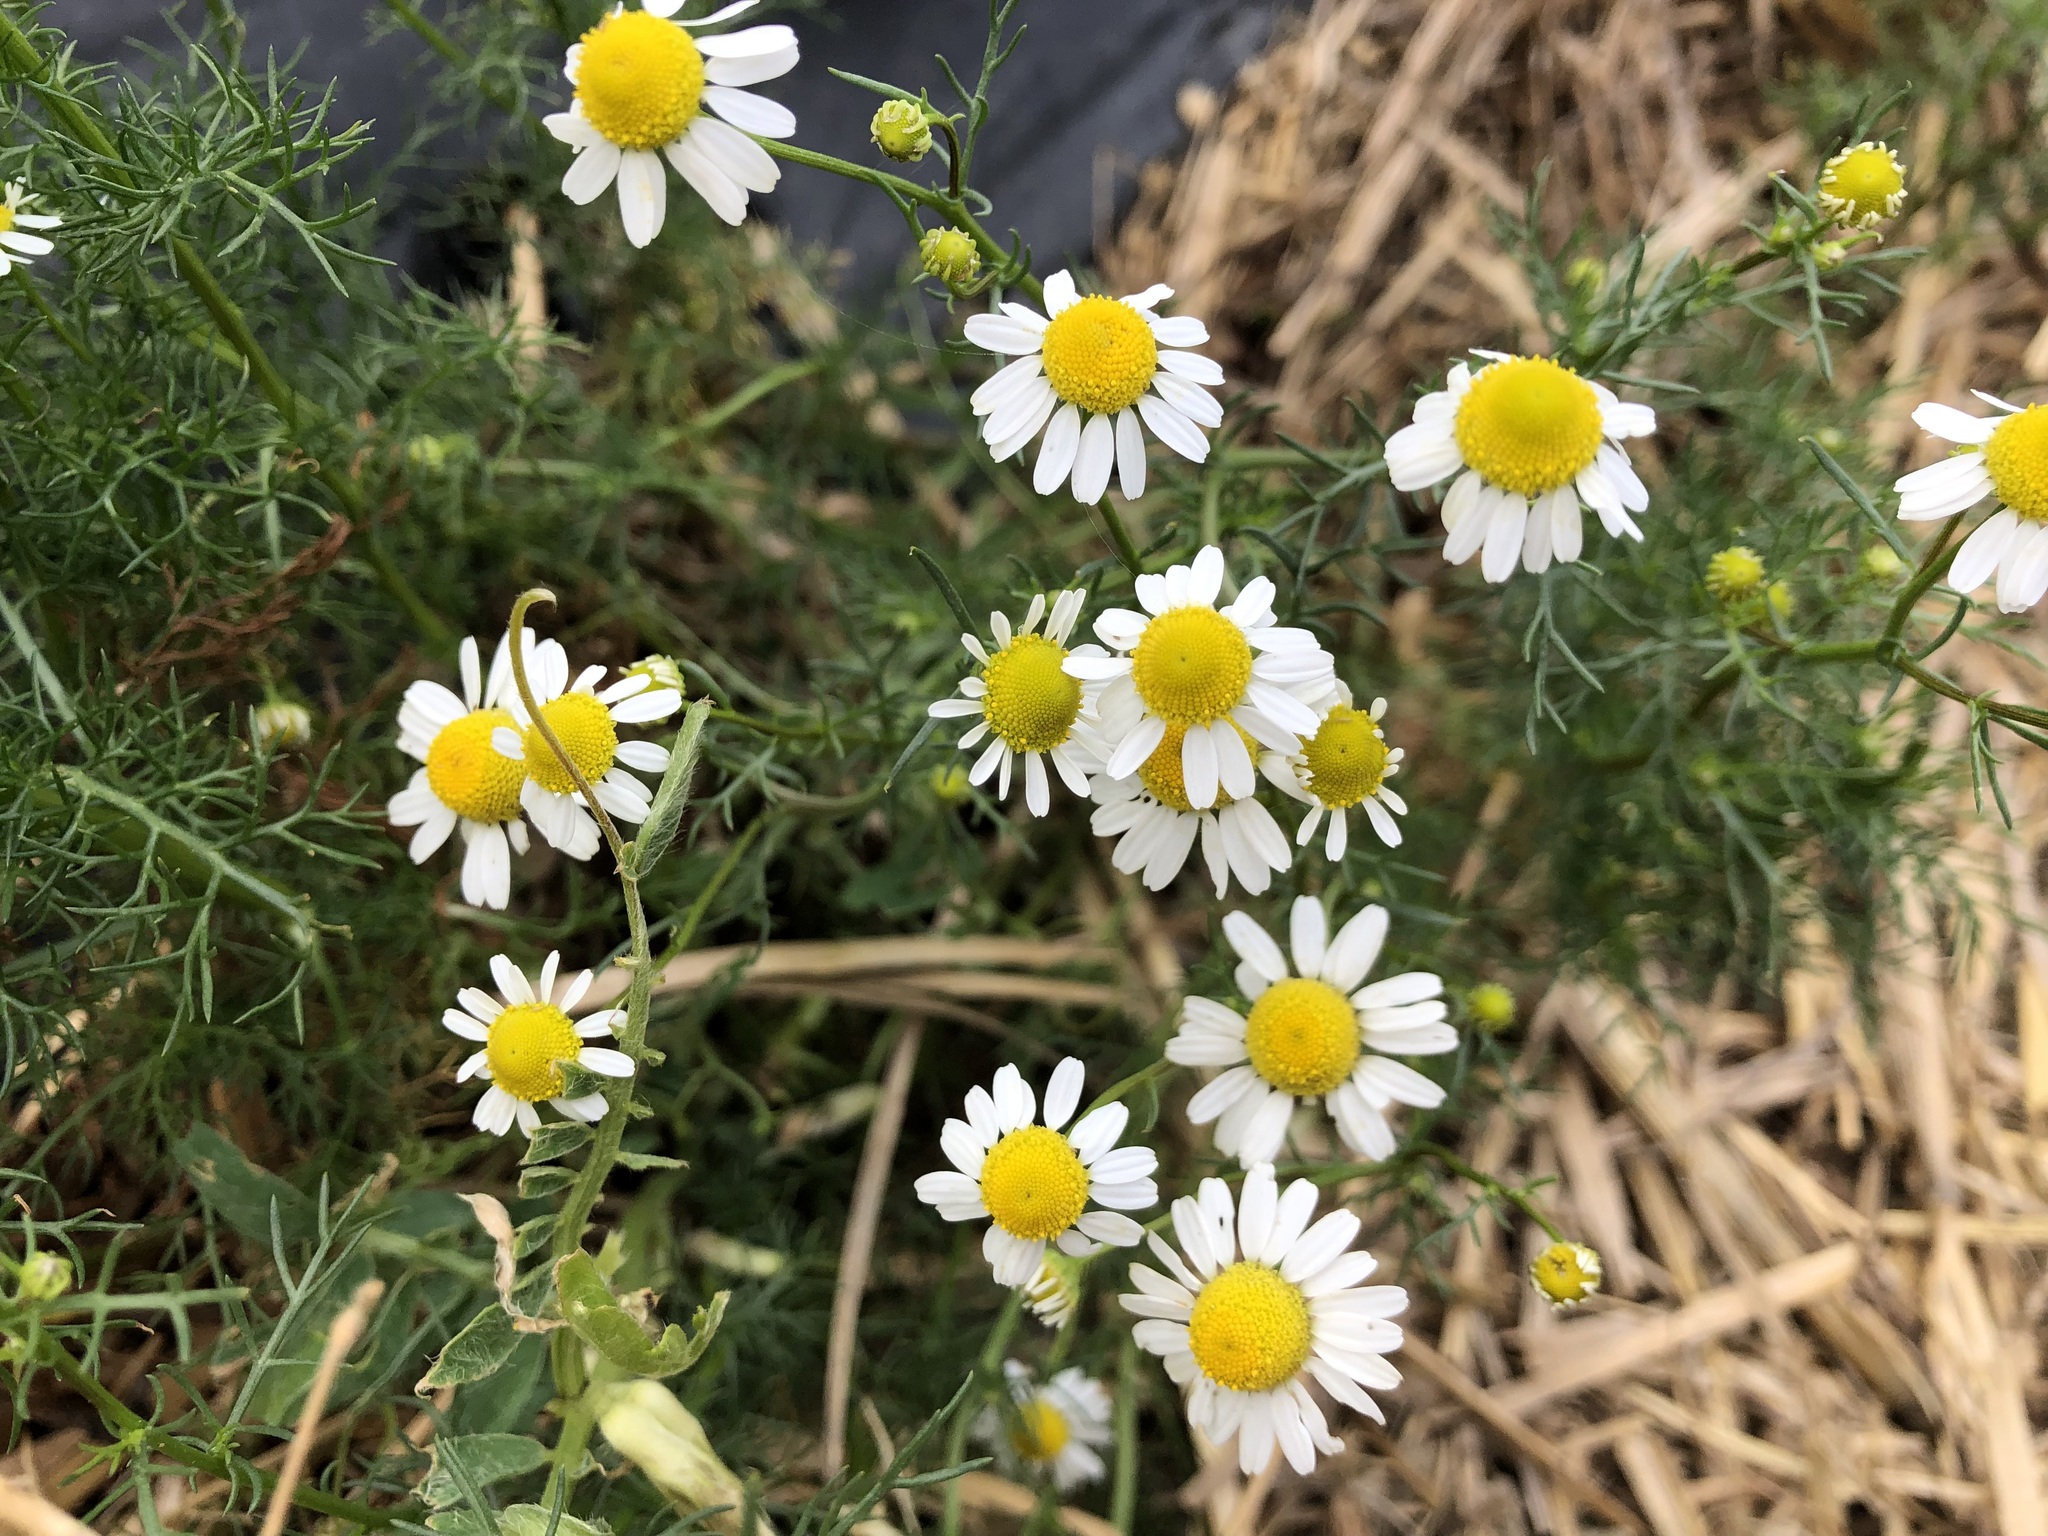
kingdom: Plantae
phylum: Tracheophyta
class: Magnoliopsida
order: Asterales
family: Asteraceae
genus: Matricaria
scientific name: Matricaria chamomilla
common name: Scented mayweed
